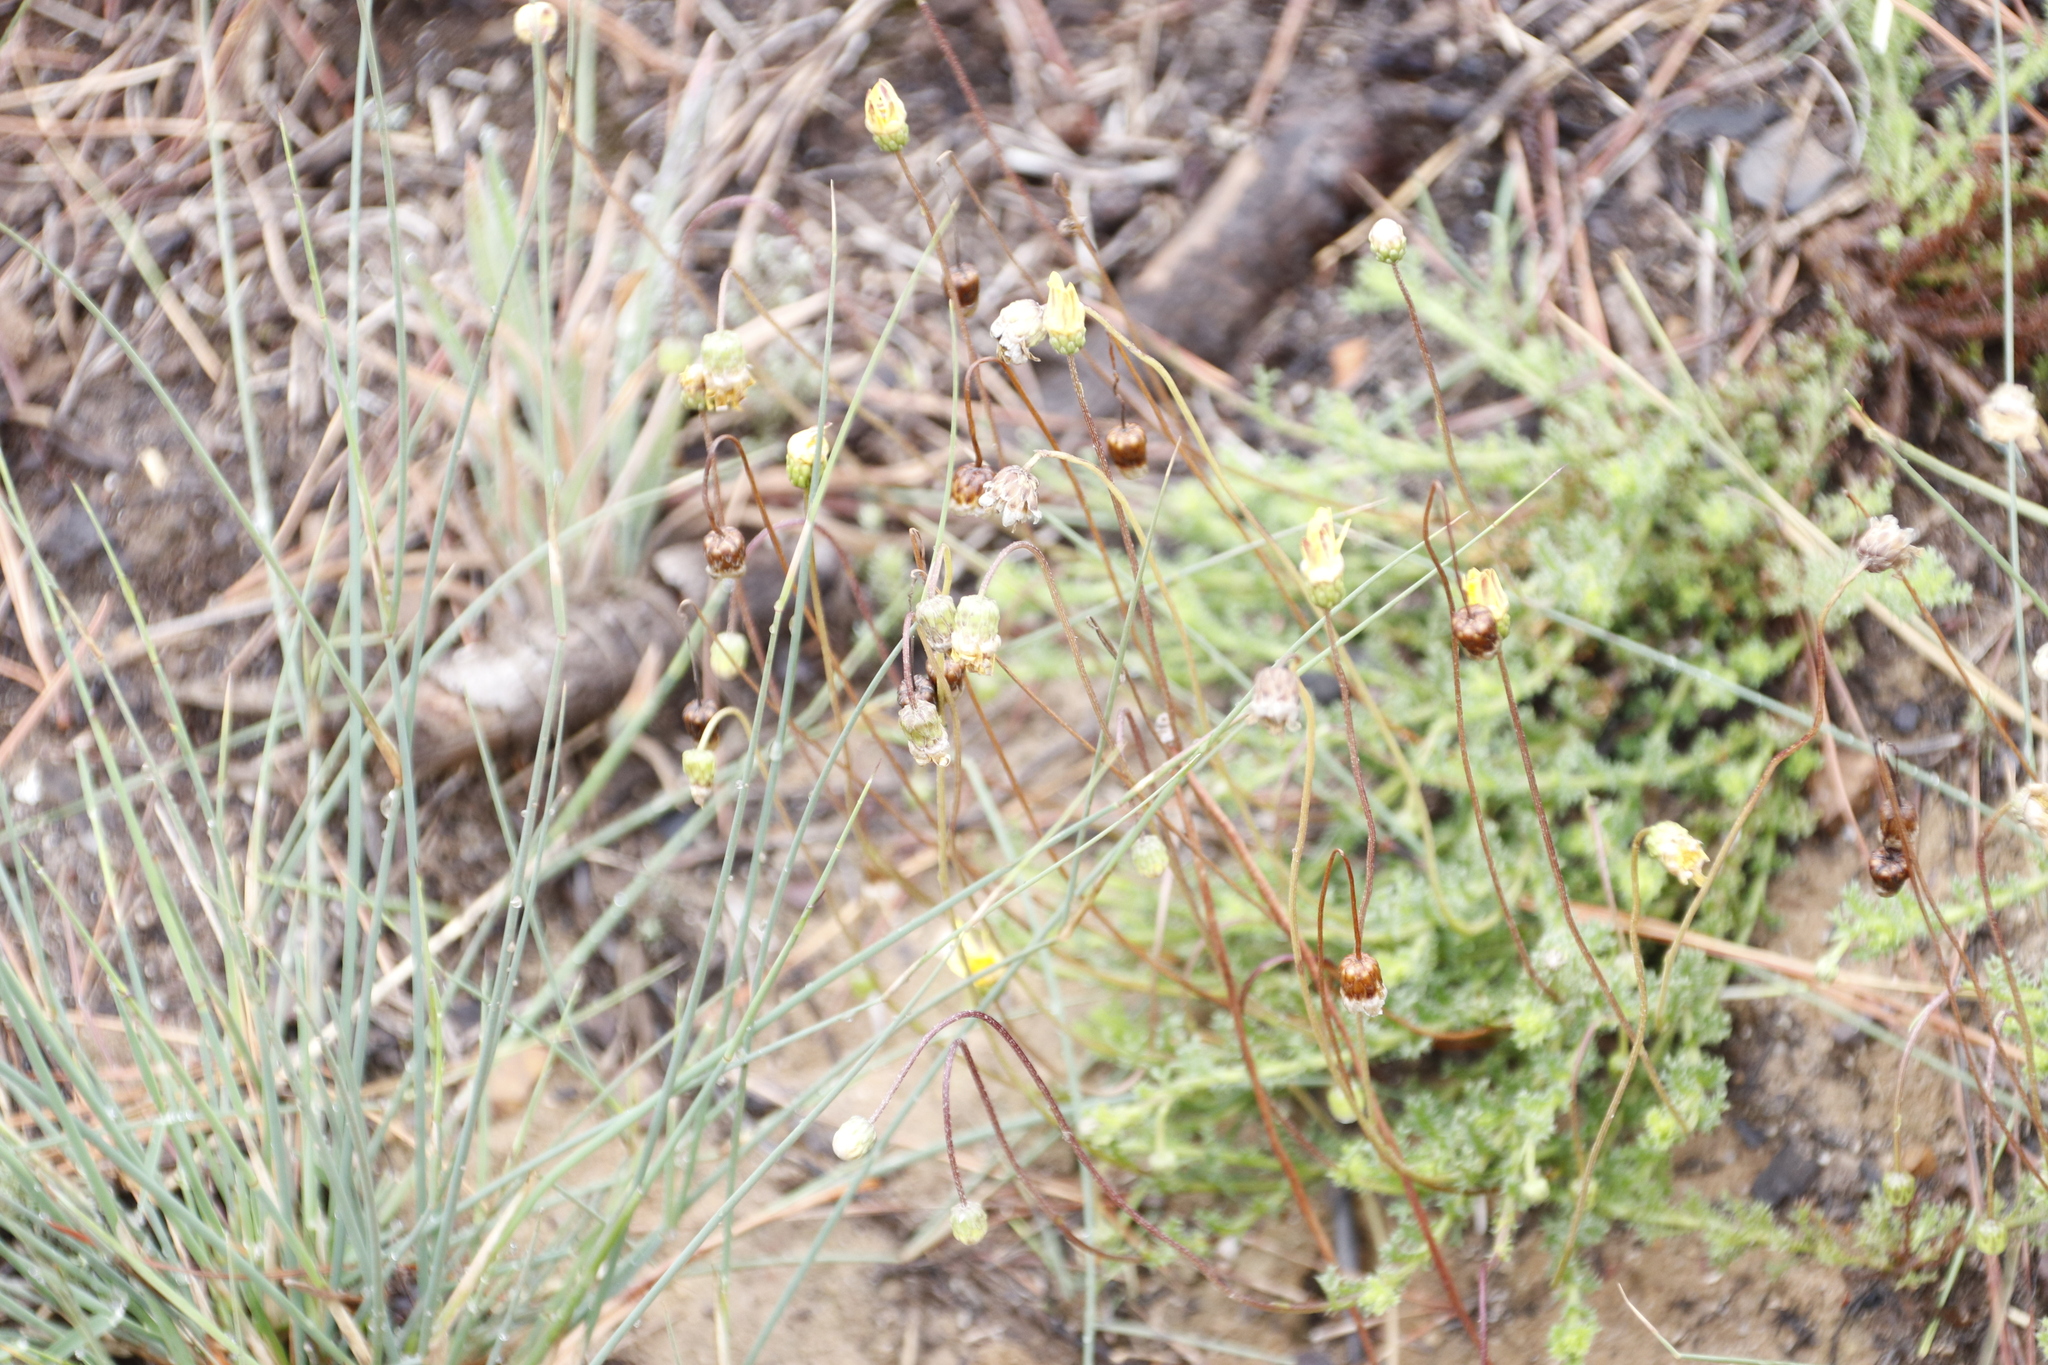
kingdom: Plantae
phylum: Tracheophyta
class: Magnoliopsida
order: Asterales
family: Asteraceae
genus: Ursinia
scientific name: Ursinia nudicaulis
